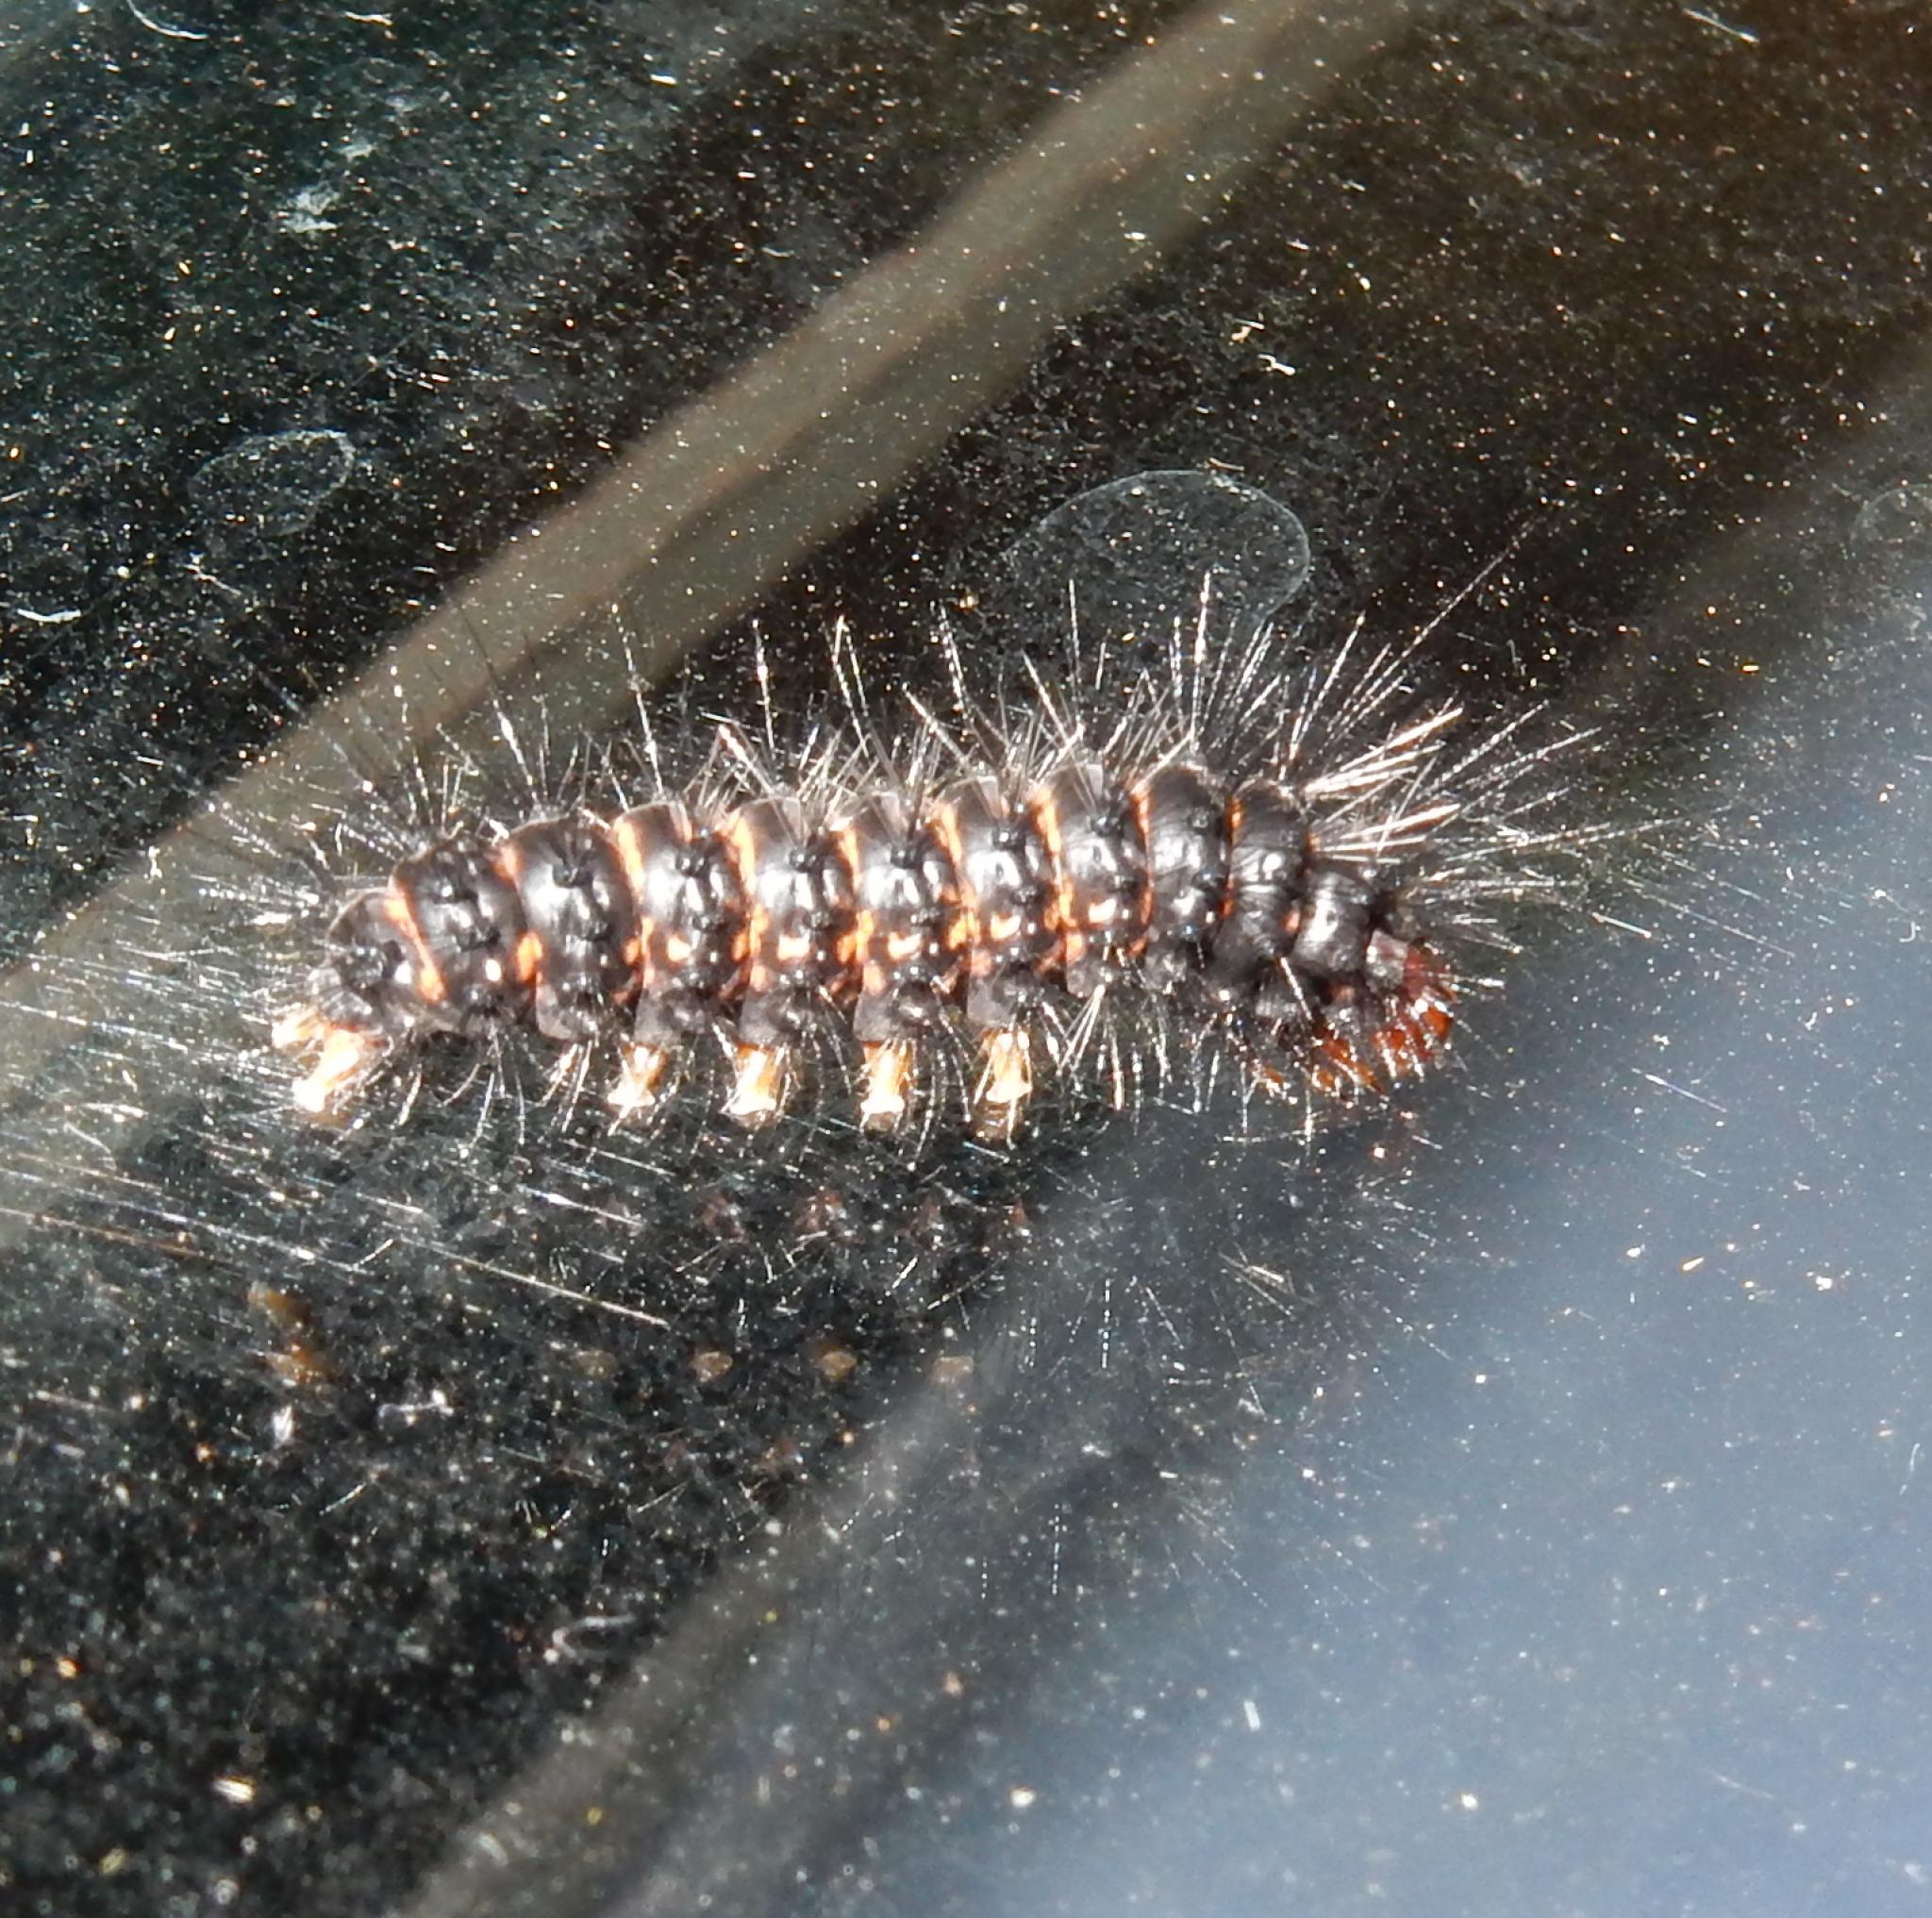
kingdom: Animalia
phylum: Arthropoda
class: Insecta
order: Lepidoptera
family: Erebidae
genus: Afromurzinia
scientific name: Afromurzinia lutescens
